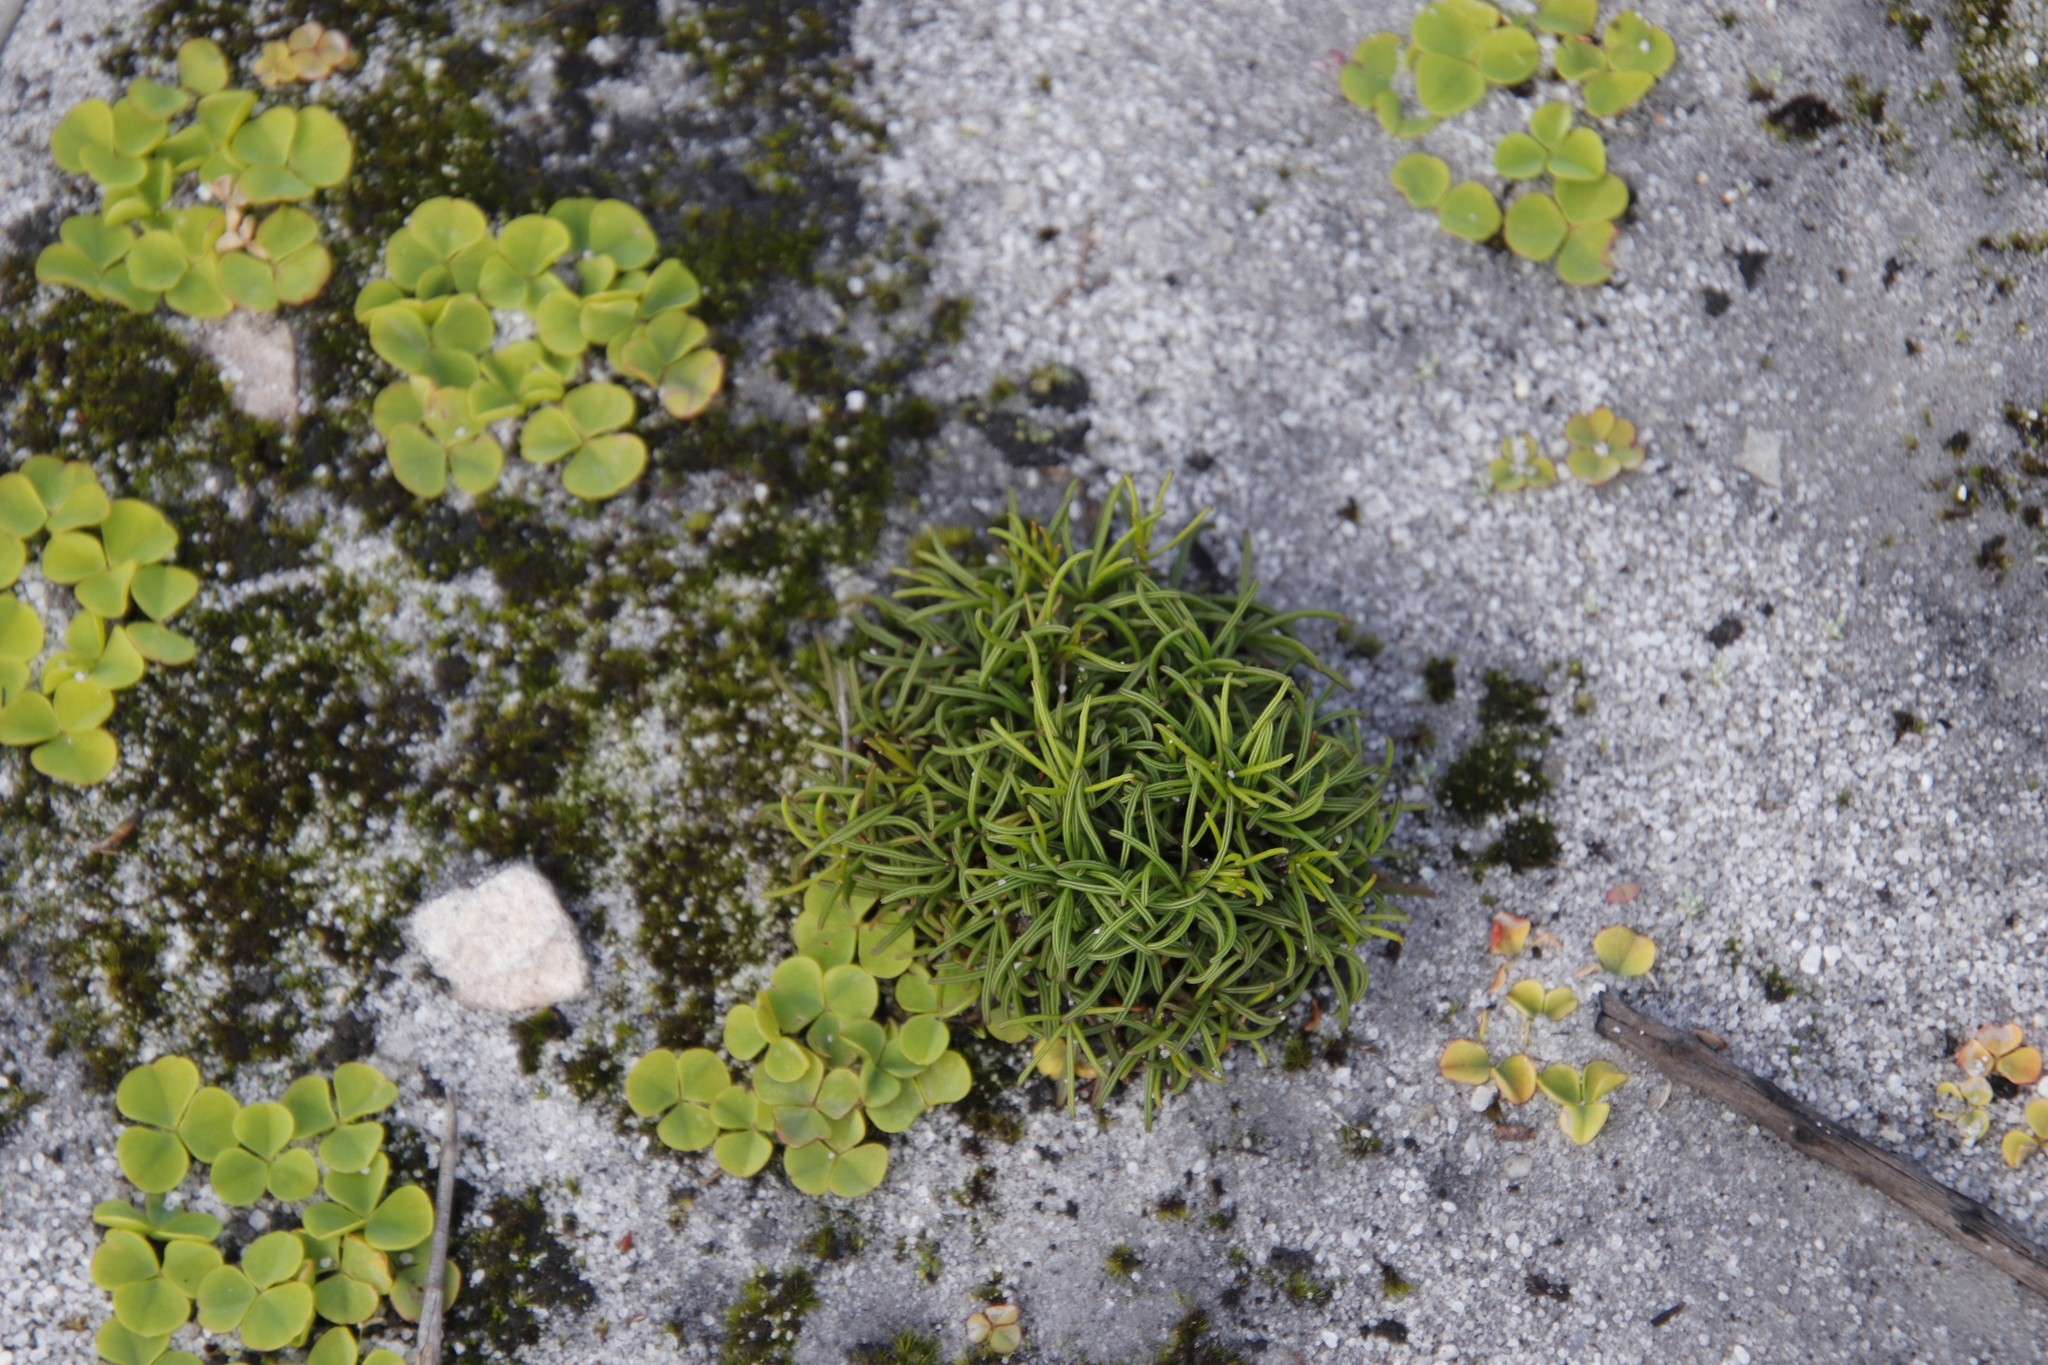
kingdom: Plantae
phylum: Tracheophyta
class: Magnoliopsida
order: Oxalidales
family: Oxalidaceae
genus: Oxalis
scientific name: Oxalis polyphylla
